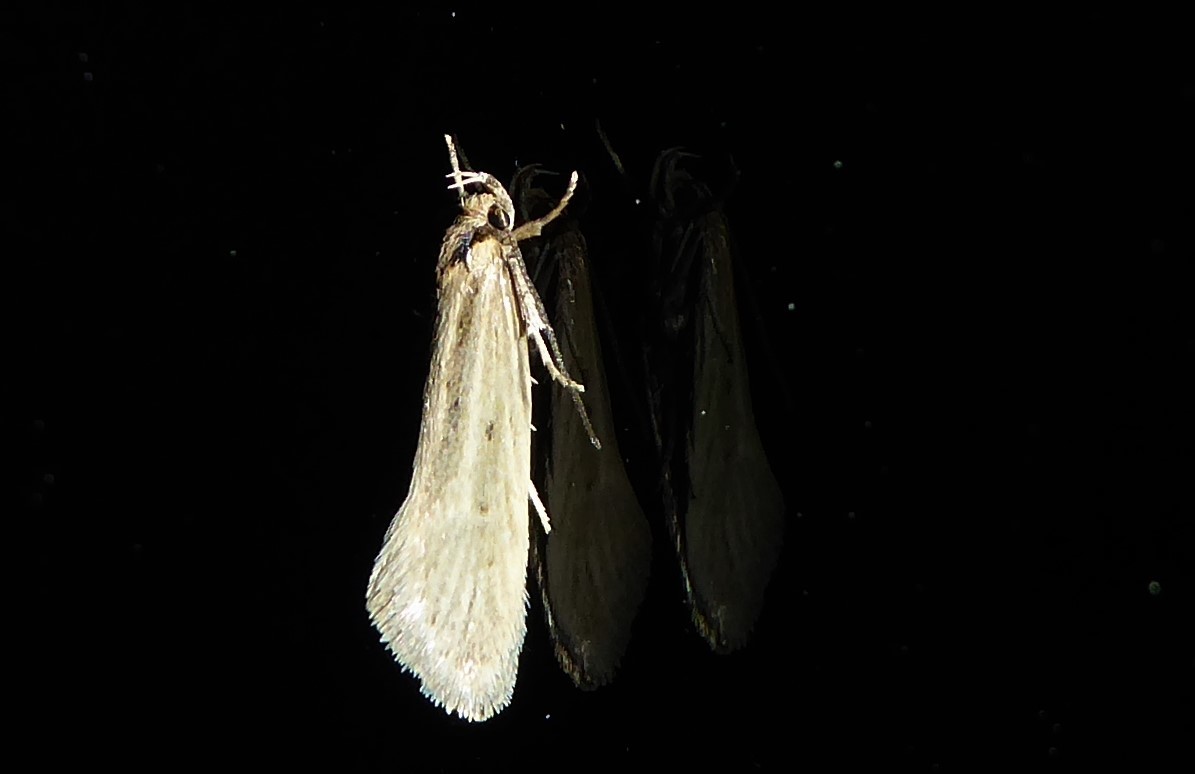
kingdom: Animalia
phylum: Arthropoda
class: Insecta
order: Lepidoptera
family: Oecophoridae
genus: Tingena
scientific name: Tingena chloradelpha
